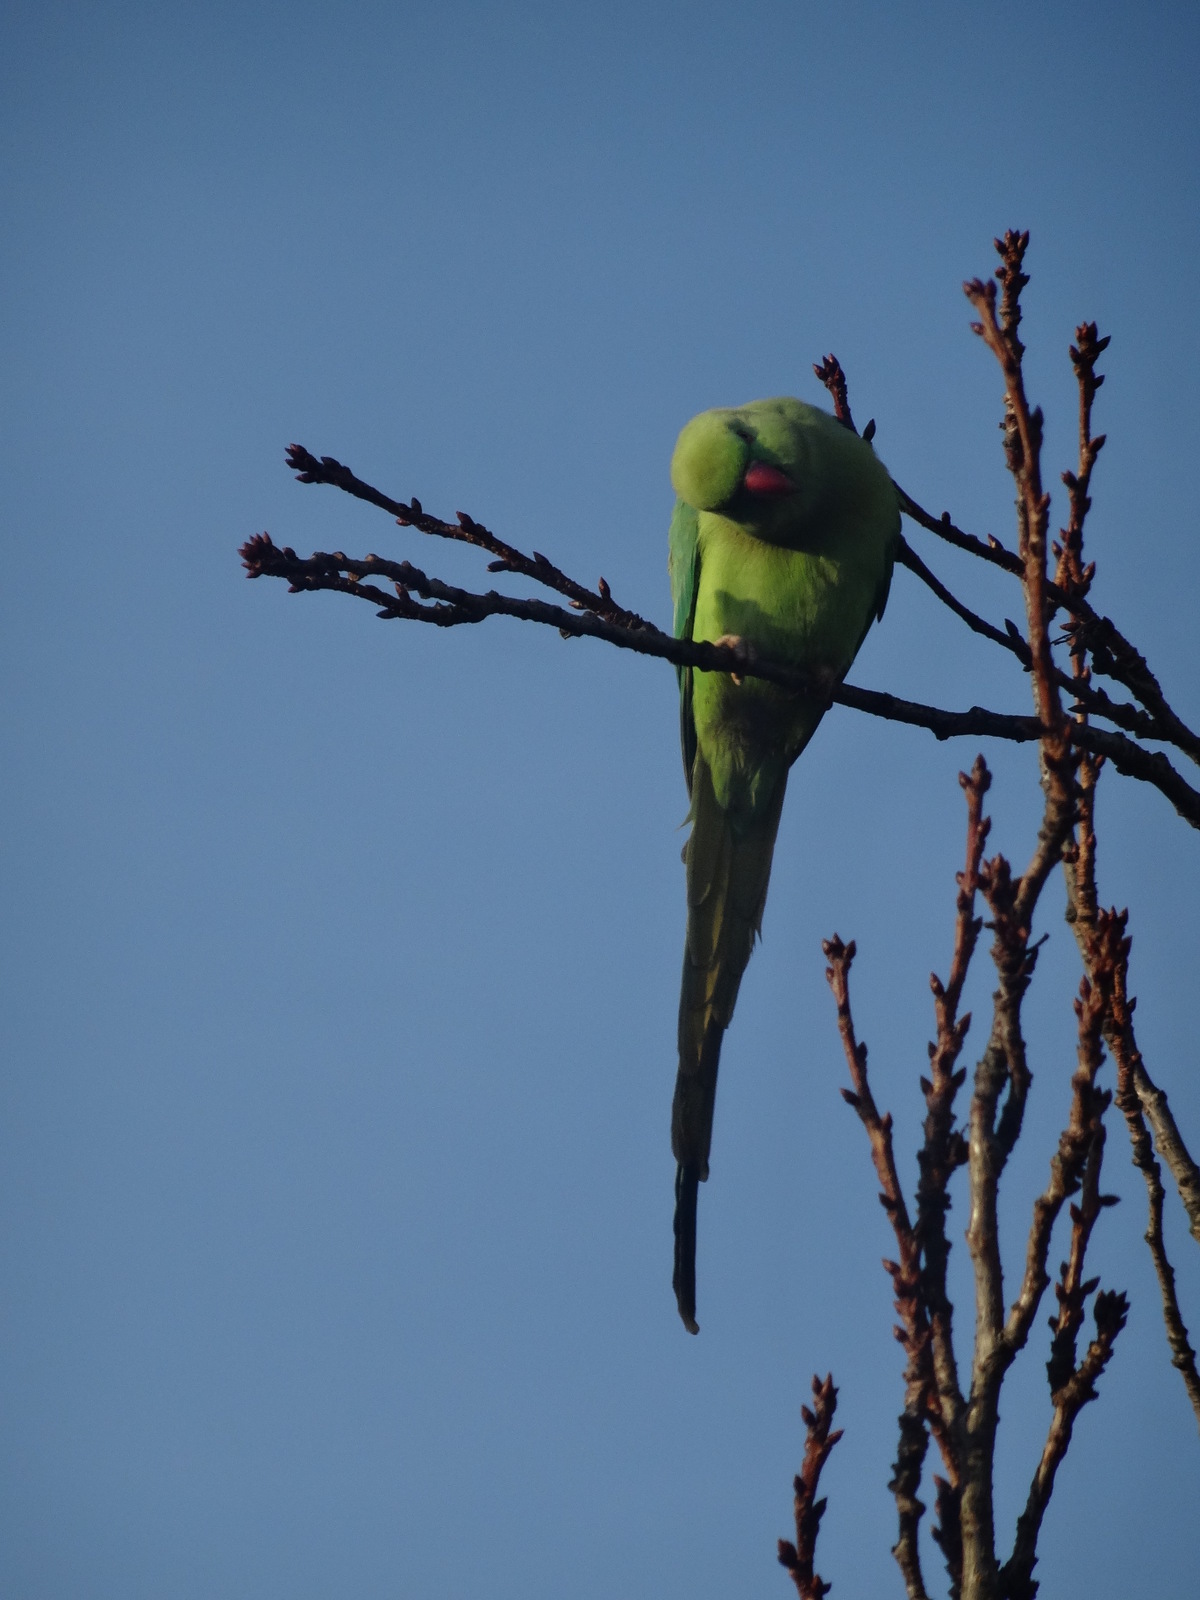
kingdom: Animalia
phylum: Chordata
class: Aves
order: Psittaciformes
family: Psittacidae
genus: Psittacula
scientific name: Psittacula krameri
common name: Rose-ringed parakeet
